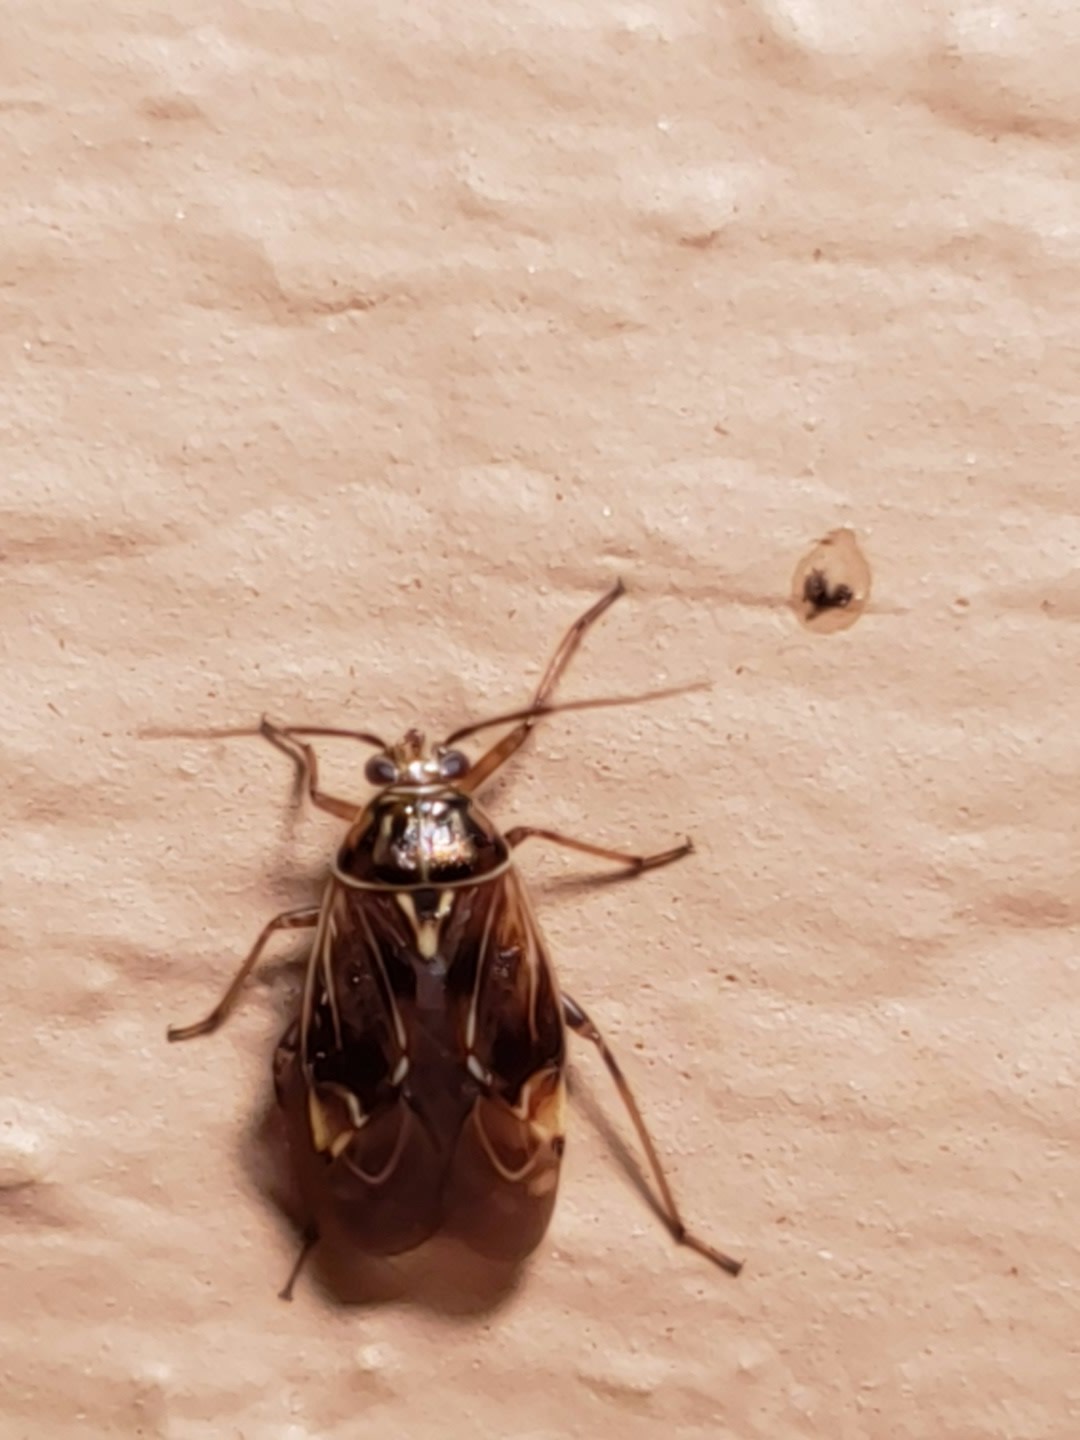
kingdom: Animalia
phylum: Arthropoda
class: Insecta
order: Hemiptera
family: Miridae
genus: Lygus
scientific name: Lygus lineolaris
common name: North american tarnished plant bug
